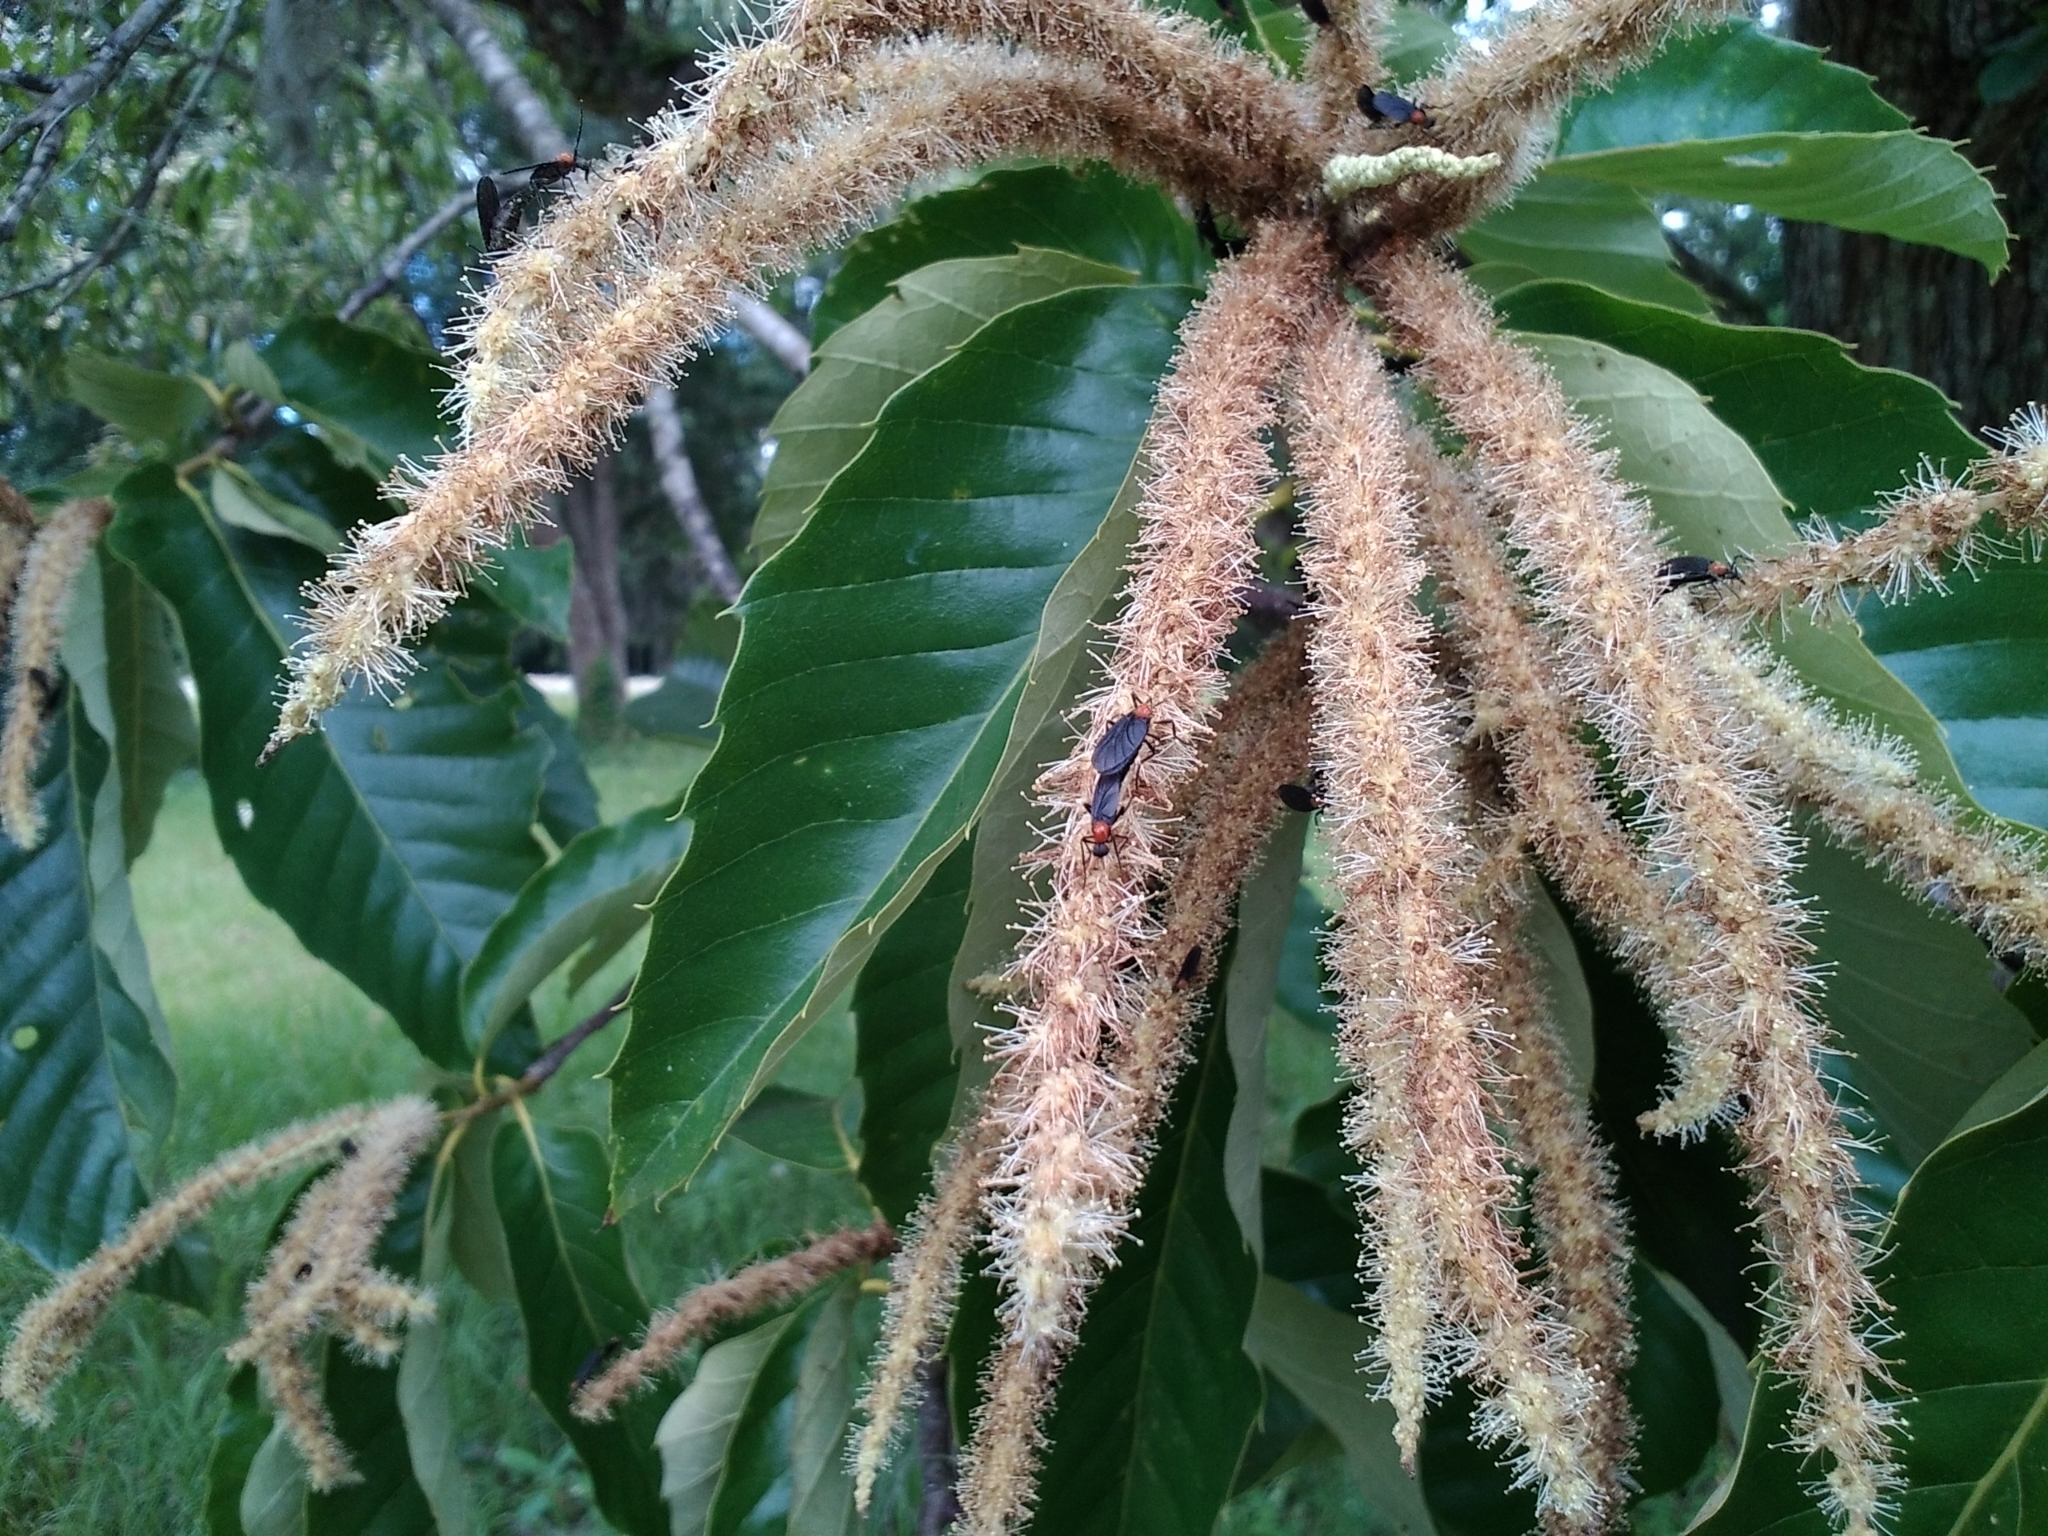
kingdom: Animalia
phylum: Arthropoda
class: Insecta
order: Diptera
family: Bibionidae
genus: Plecia
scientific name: Plecia nearctica
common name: March fly
